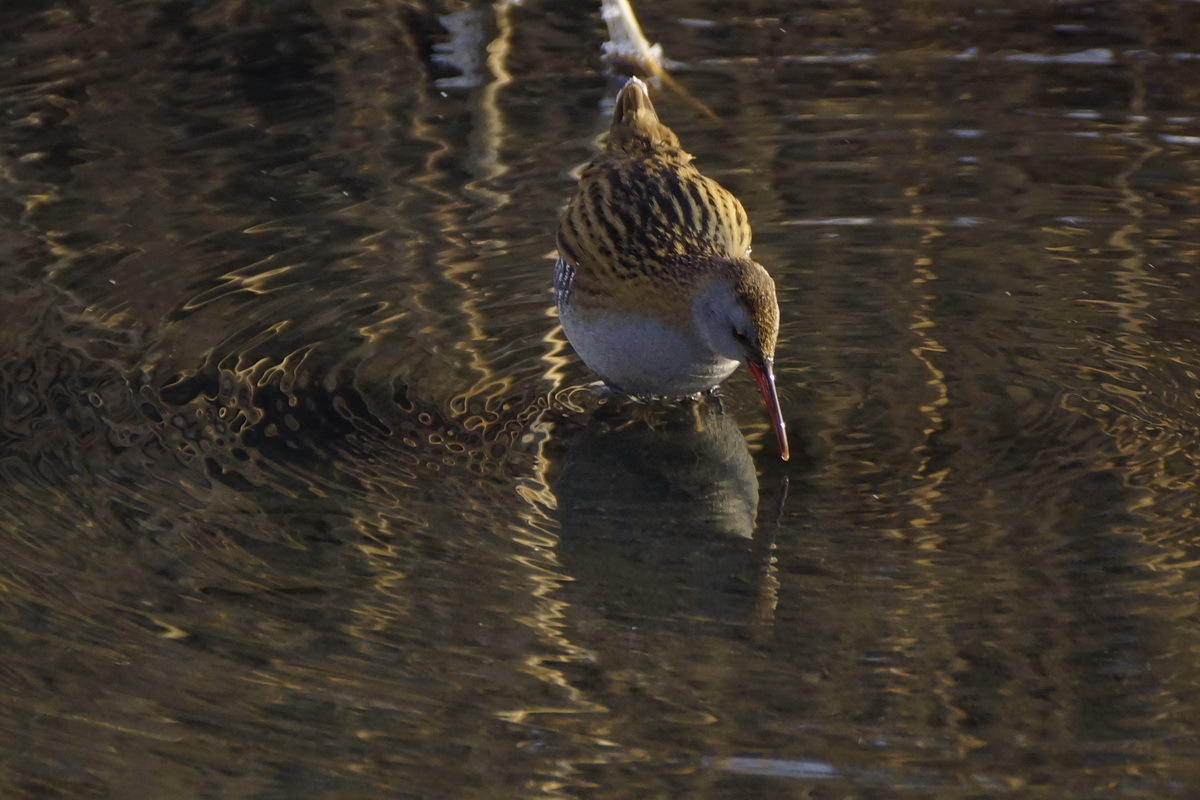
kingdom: Animalia
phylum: Chordata
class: Aves
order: Gruiformes
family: Rallidae
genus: Rallus
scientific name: Rallus aquaticus
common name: Water rail
